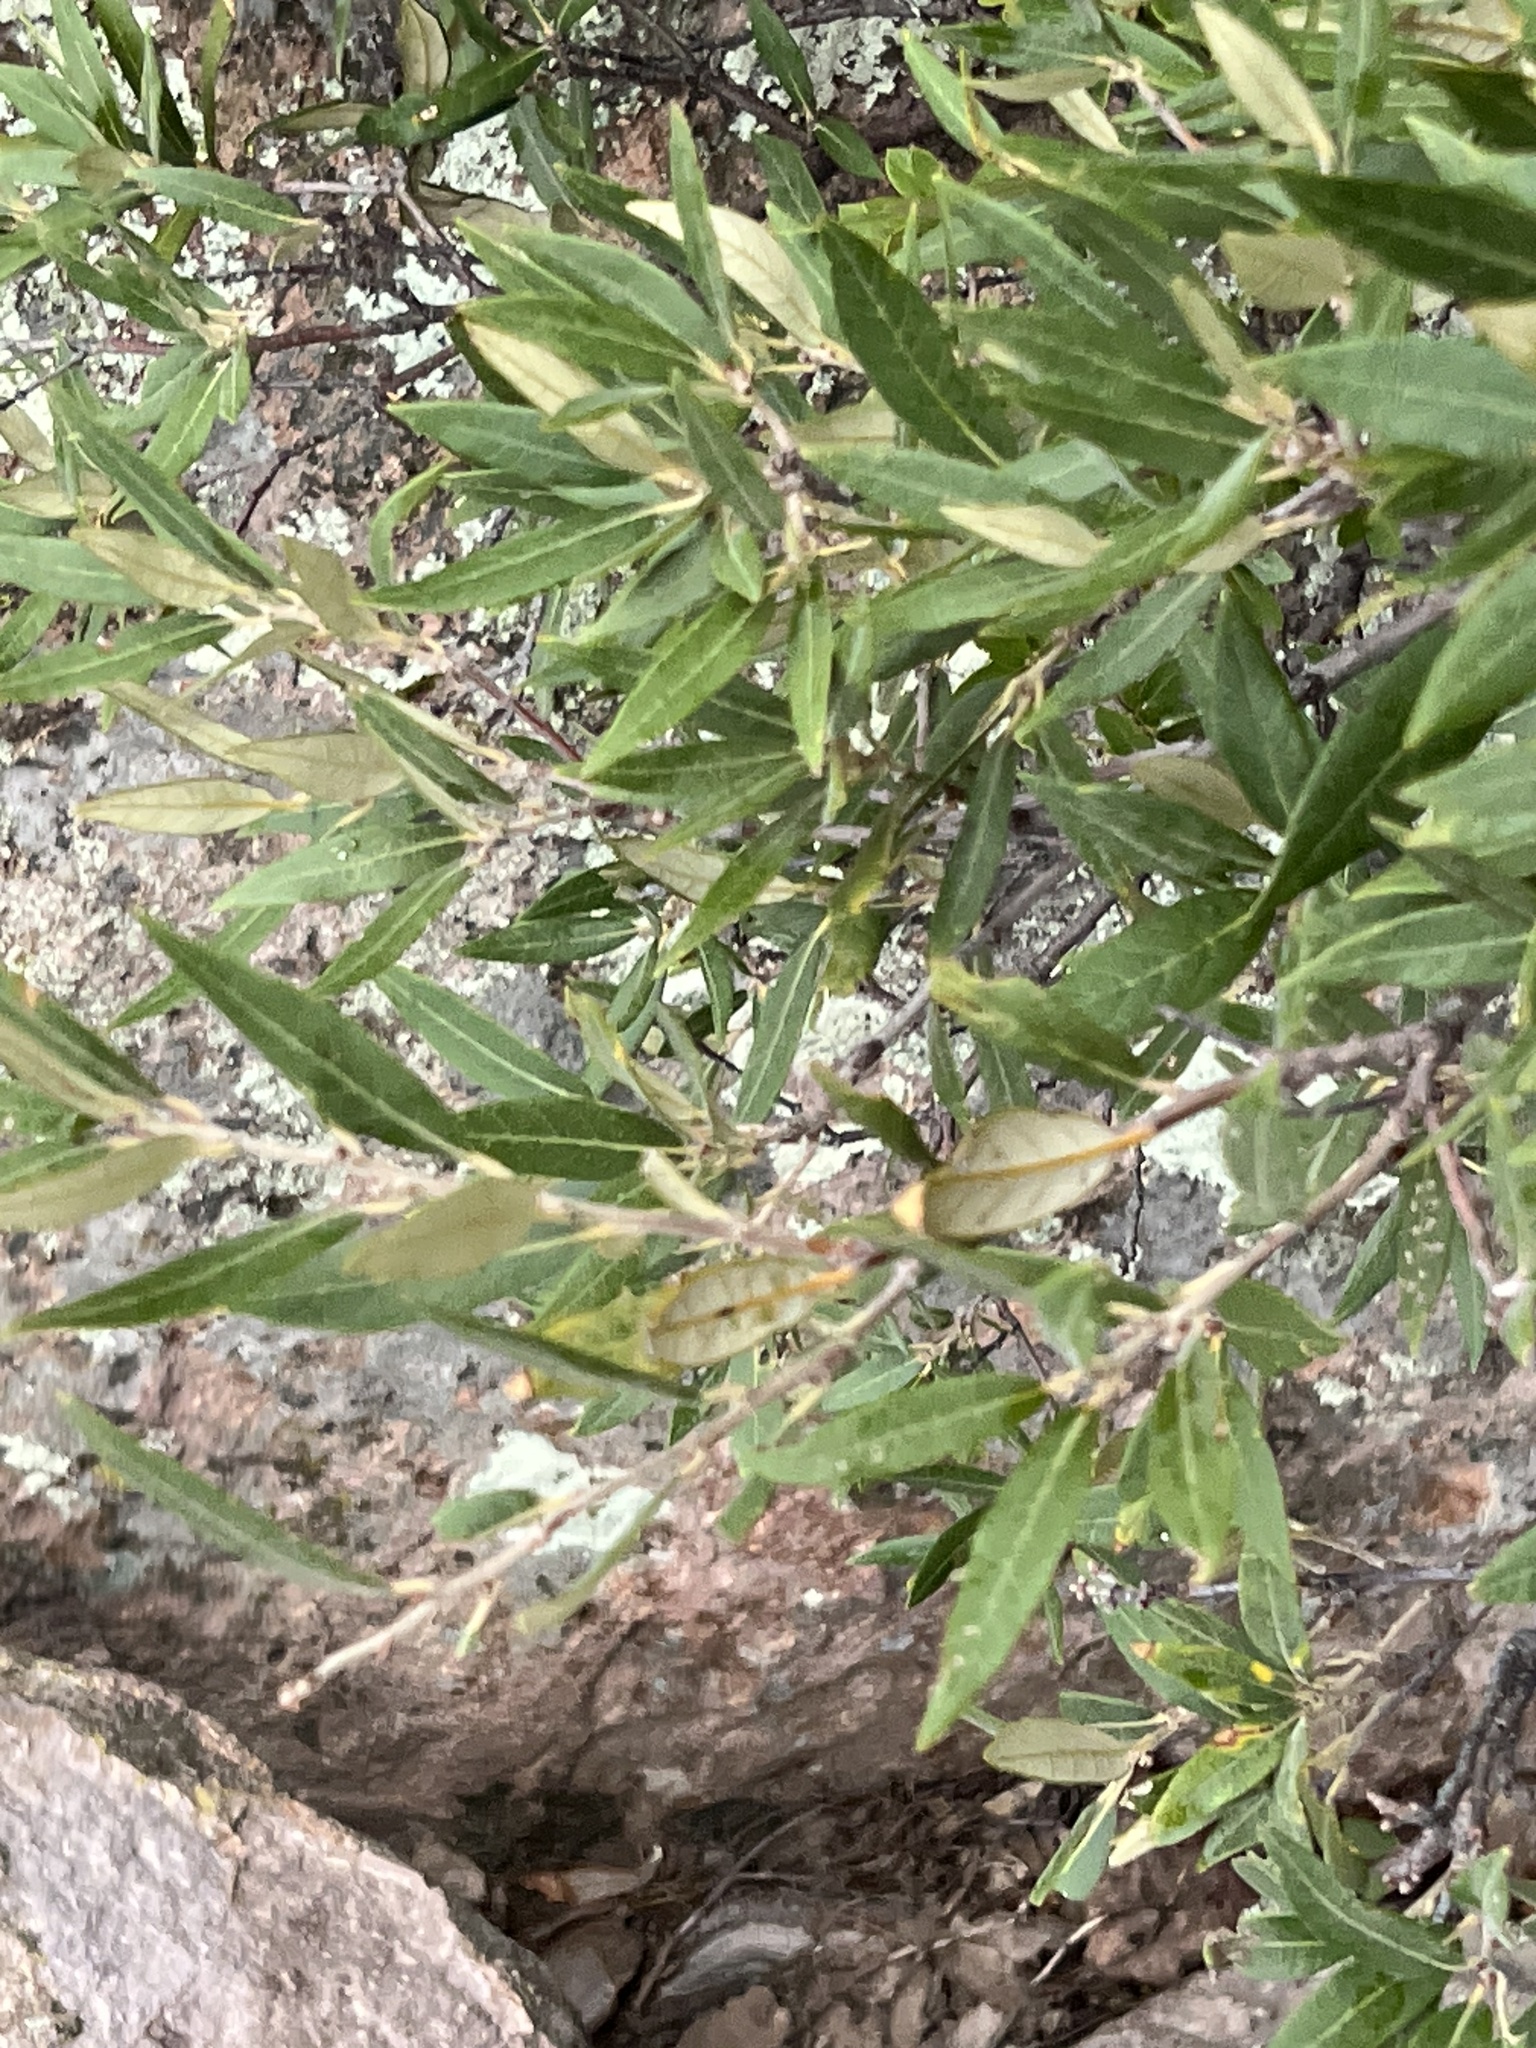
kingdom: Plantae
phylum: Tracheophyta
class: Magnoliopsida
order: Fagales
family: Fagaceae
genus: Quercus
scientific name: Quercus hypoleucoides
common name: Silverleaf oak
